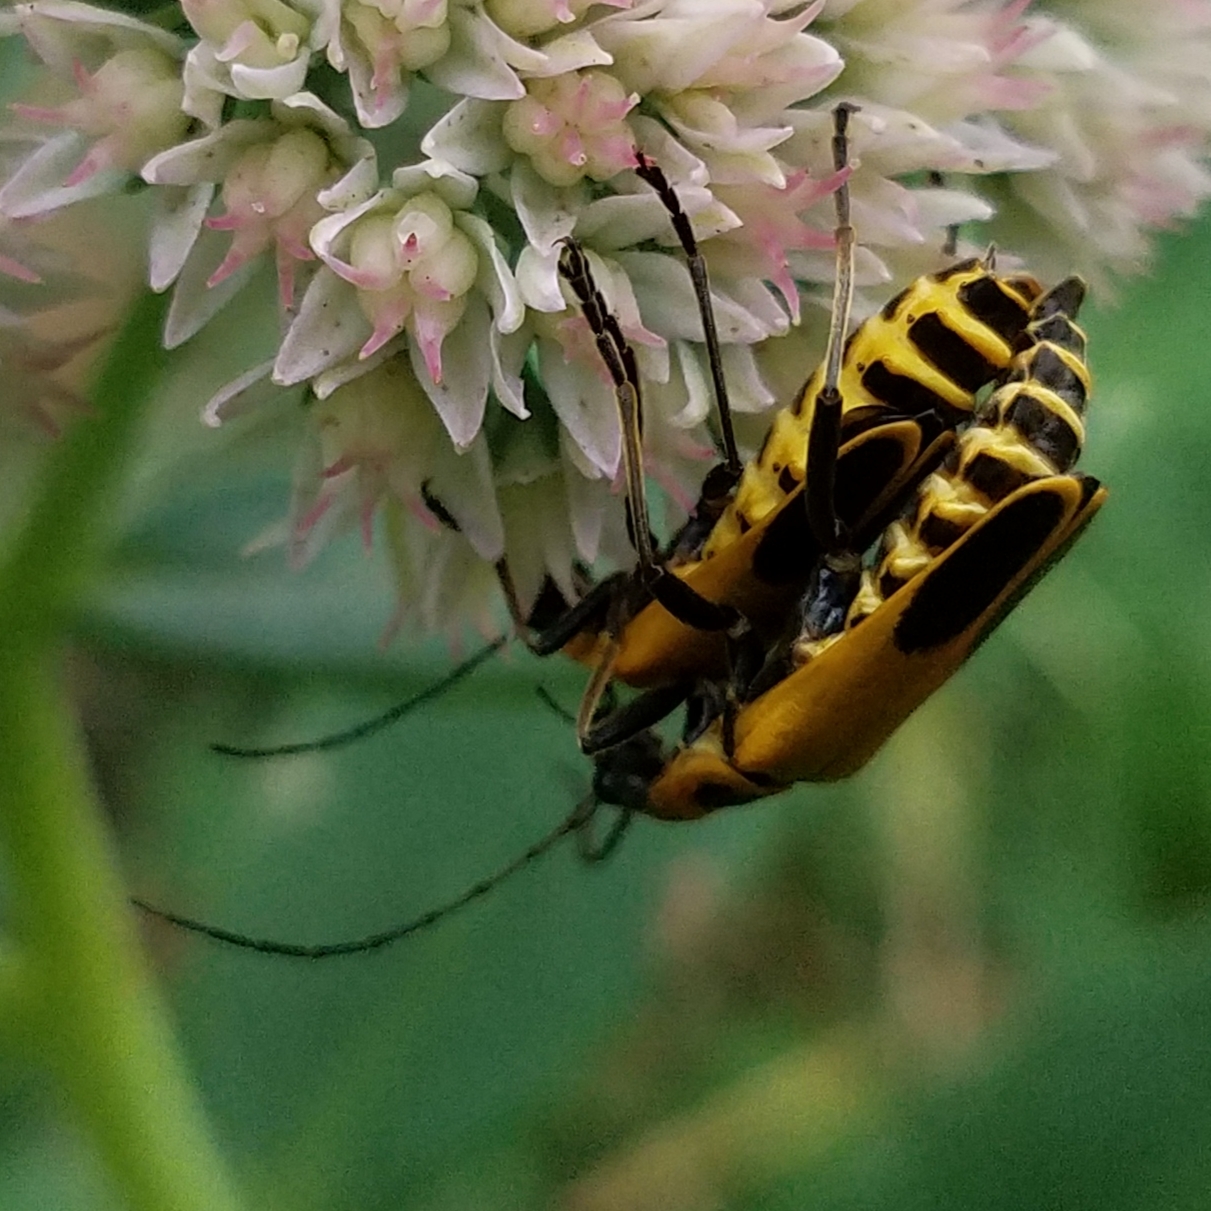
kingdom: Animalia
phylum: Arthropoda
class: Insecta
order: Coleoptera
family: Cantharidae
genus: Chauliognathus
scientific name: Chauliognathus pensylvanicus
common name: Goldenrod soldier beetle
